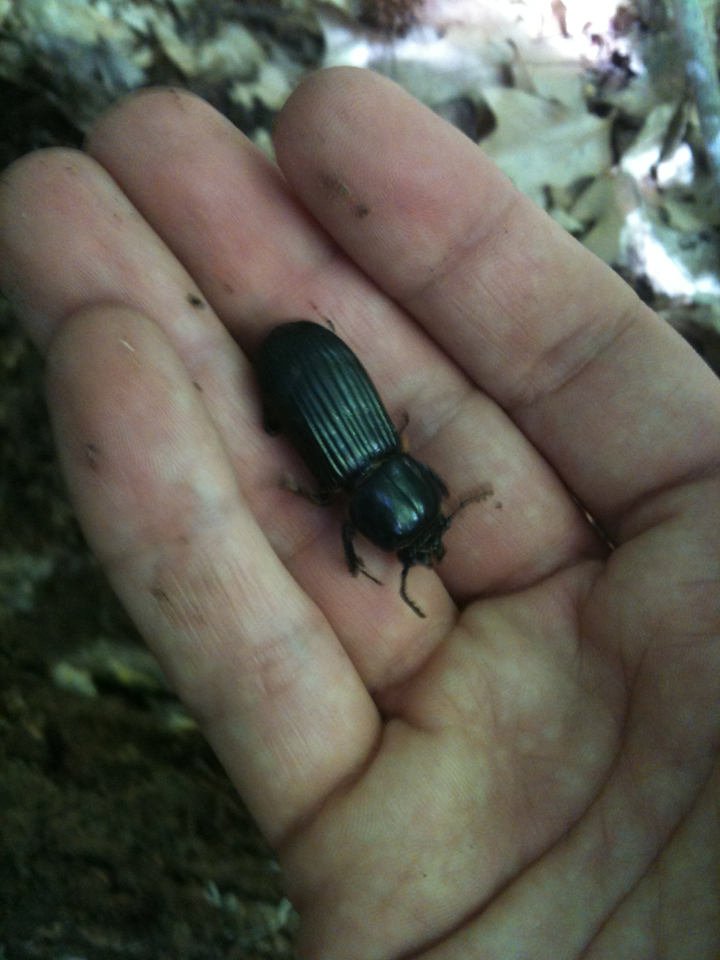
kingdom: Animalia
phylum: Arthropoda
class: Insecta
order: Coleoptera
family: Passalidae
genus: Odontotaenius
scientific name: Odontotaenius disjunctus
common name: Patent leather beetle
